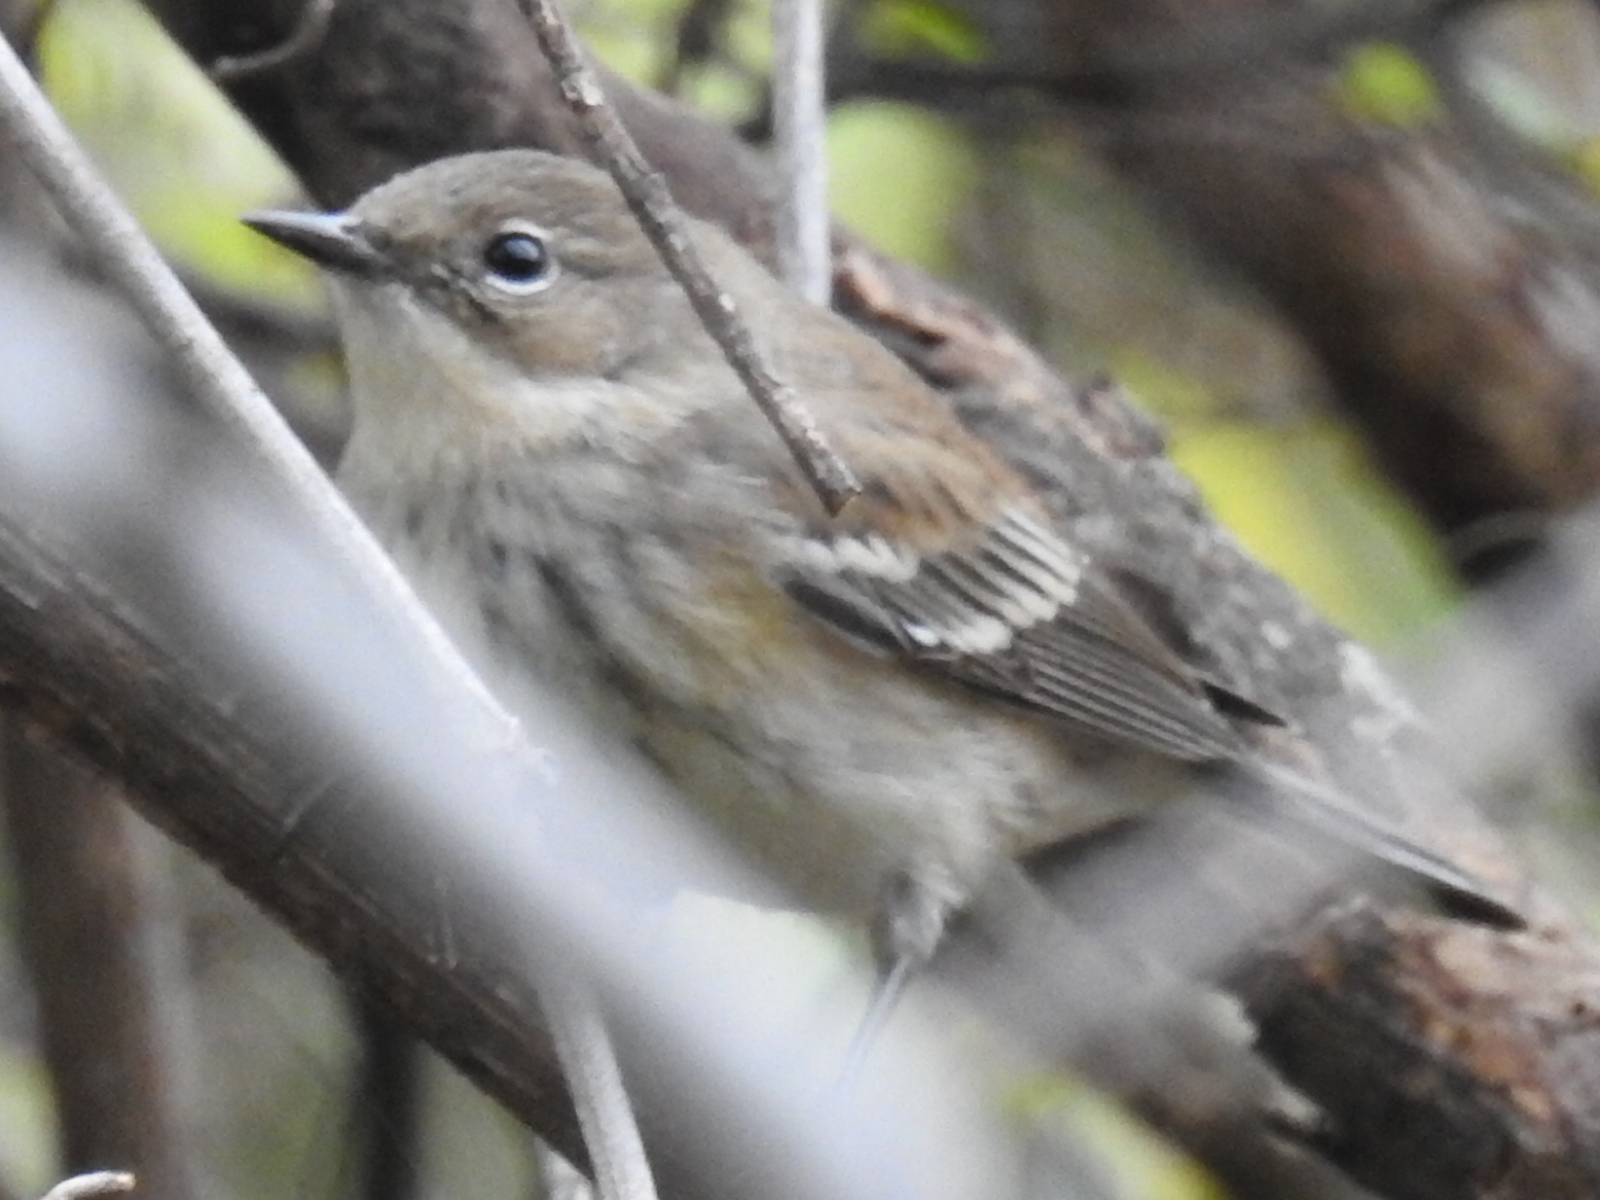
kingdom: Animalia
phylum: Chordata
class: Aves
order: Passeriformes
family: Parulidae
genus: Setophaga
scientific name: Setophaga coronata
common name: Myrtle warbler
